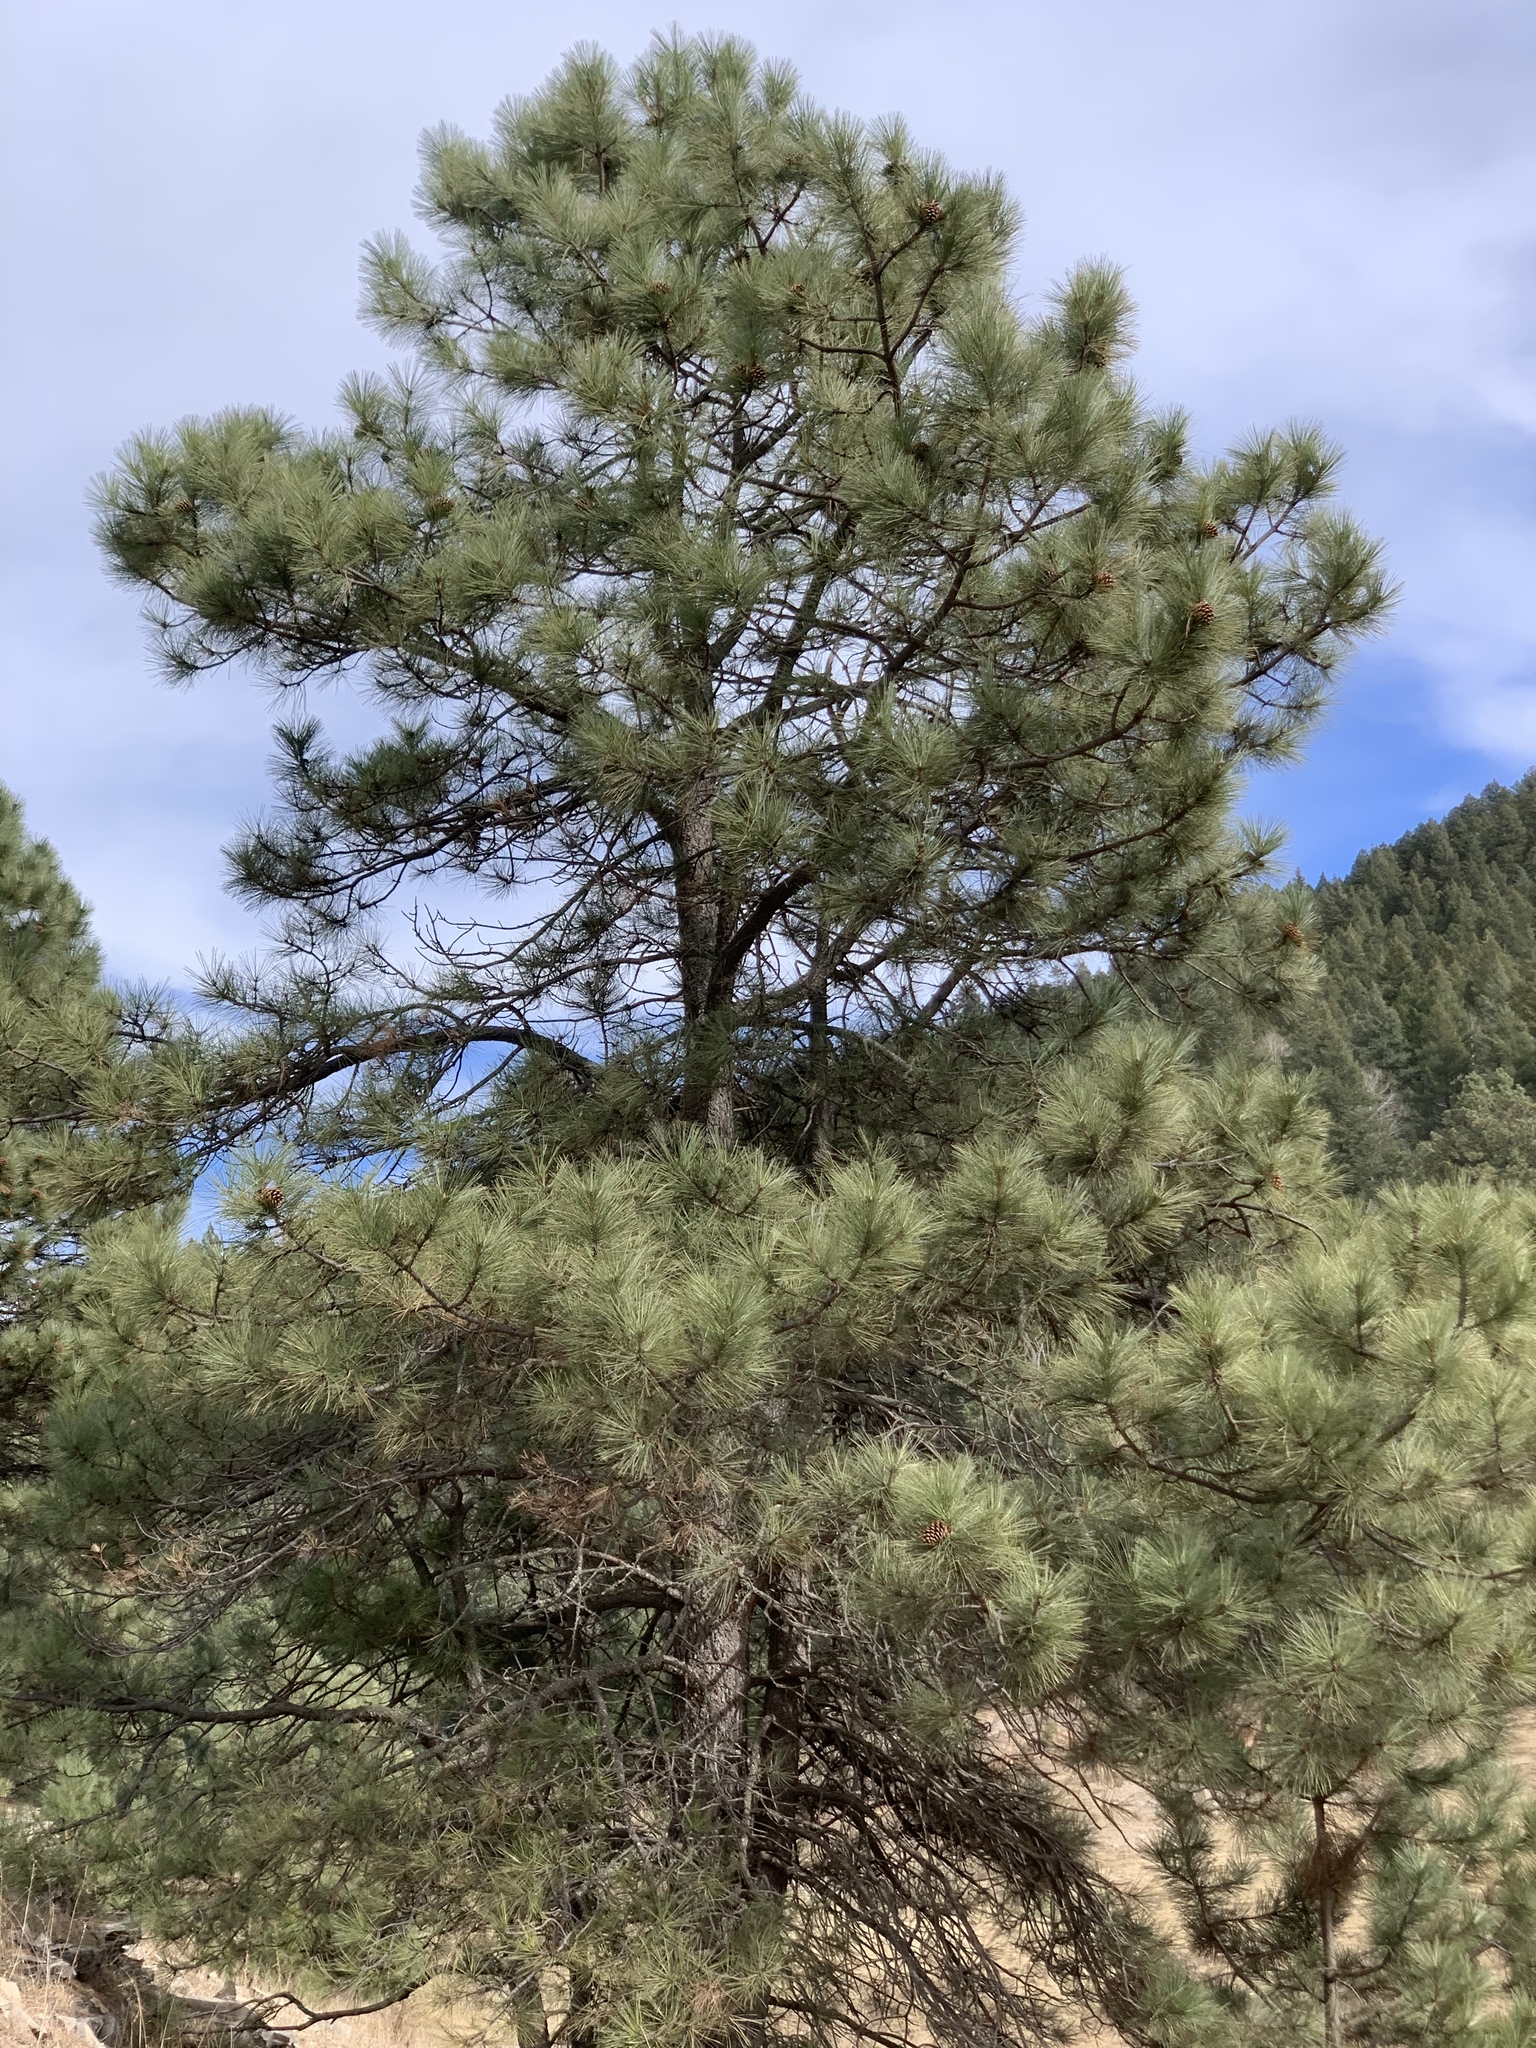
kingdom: Plantae
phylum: Tracheophyta
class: Pinopsida
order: Pinales
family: Pinaceae
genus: Pinus
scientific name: Pinus ponderosa
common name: Western yellow-pine
